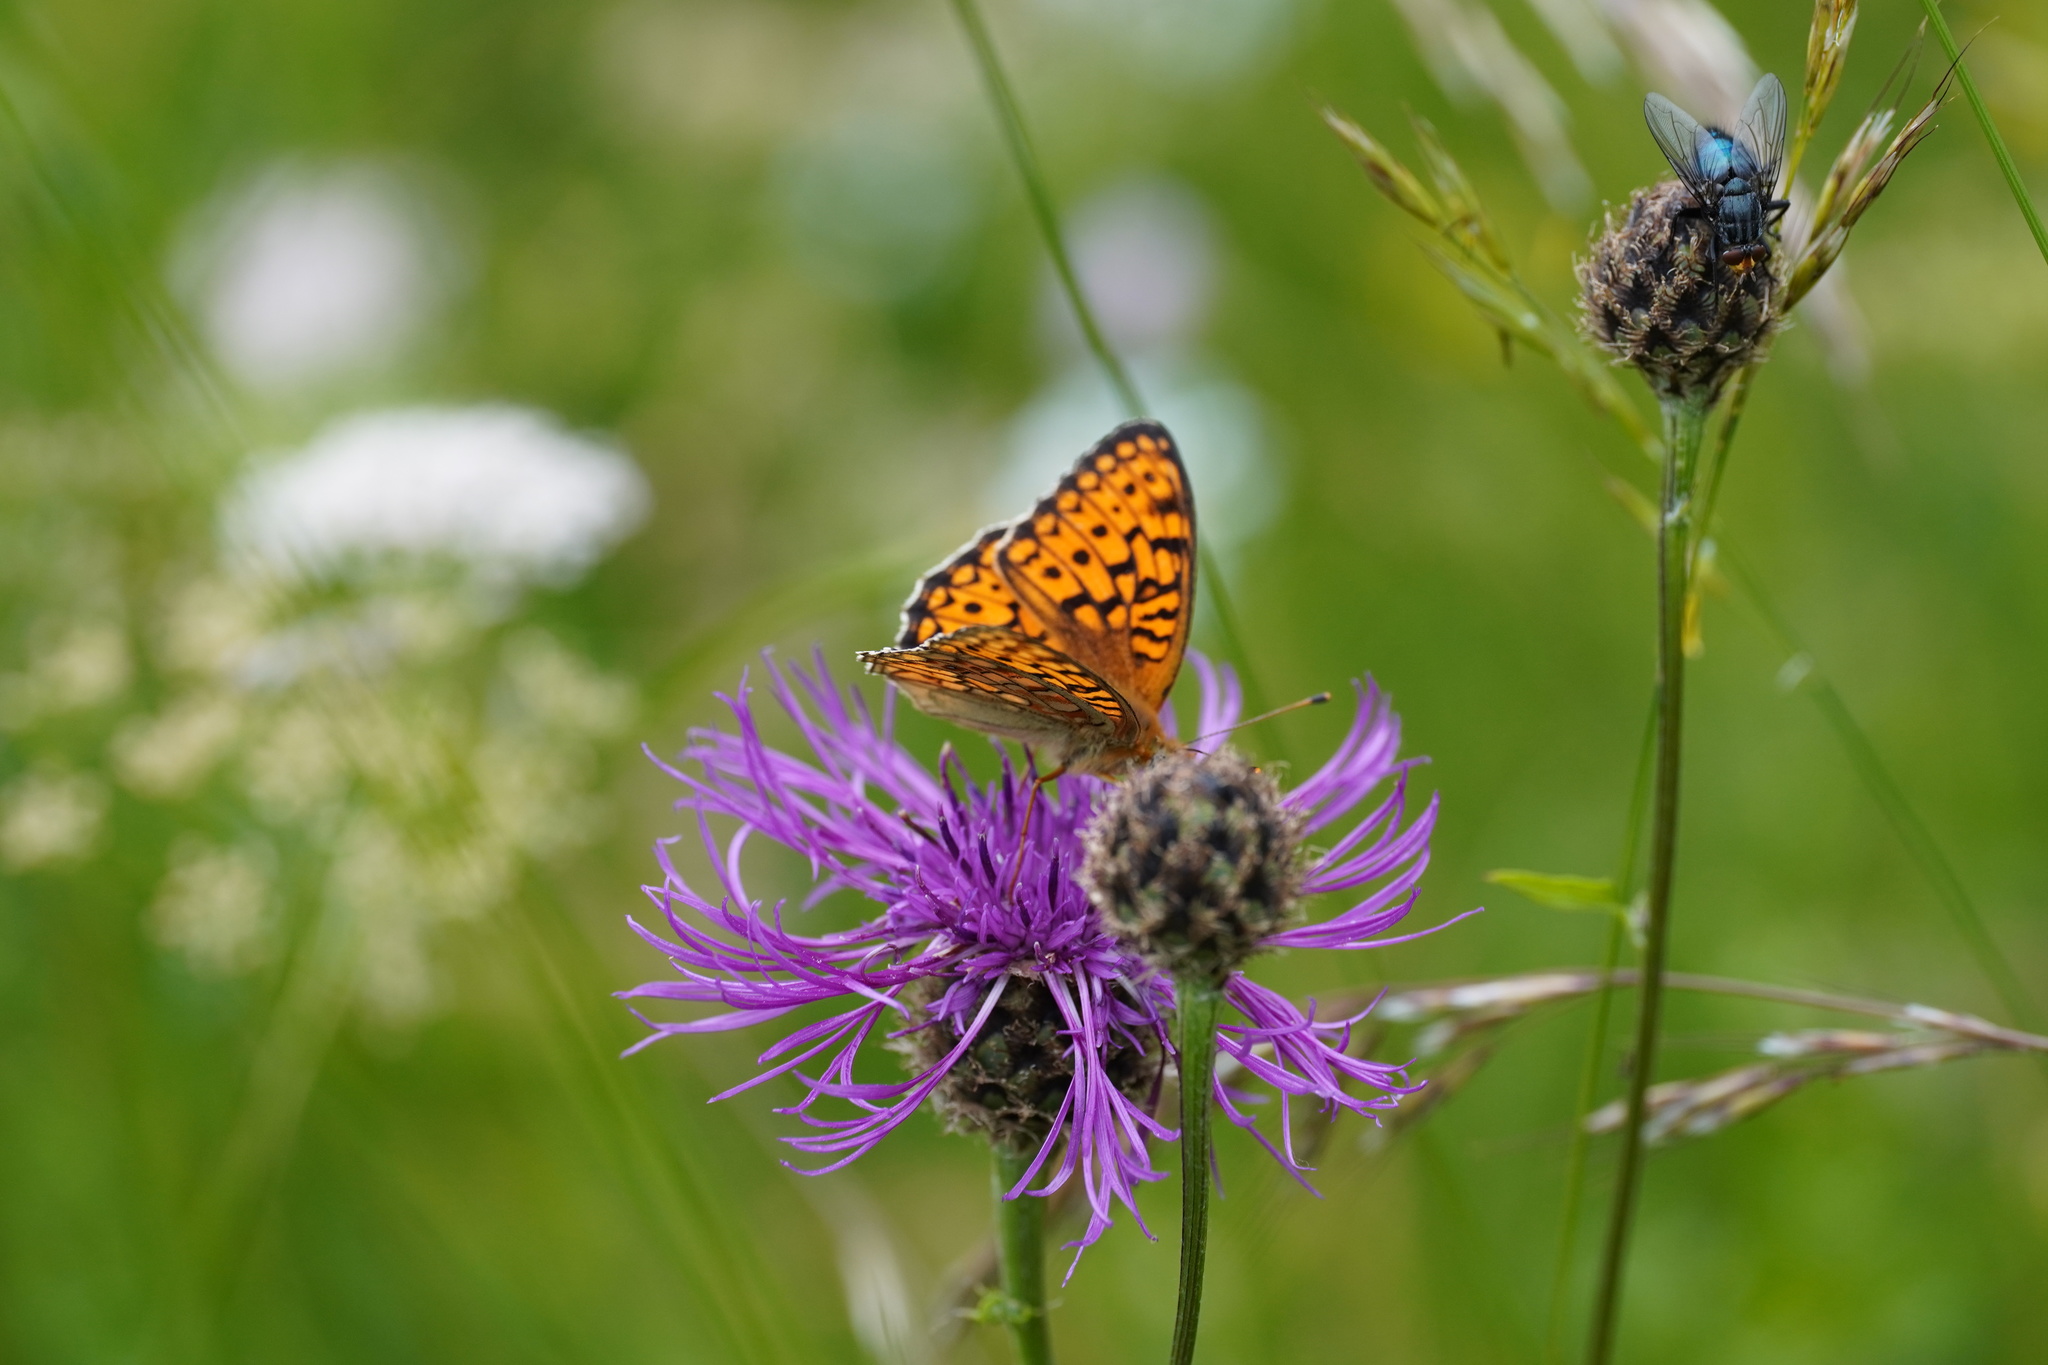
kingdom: Animalia
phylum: Arthropoda
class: Insecta
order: Lepidoptera
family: Nymphalidae
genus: Fabriciana
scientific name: Fabriciana niobe
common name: Niobe fritillary
